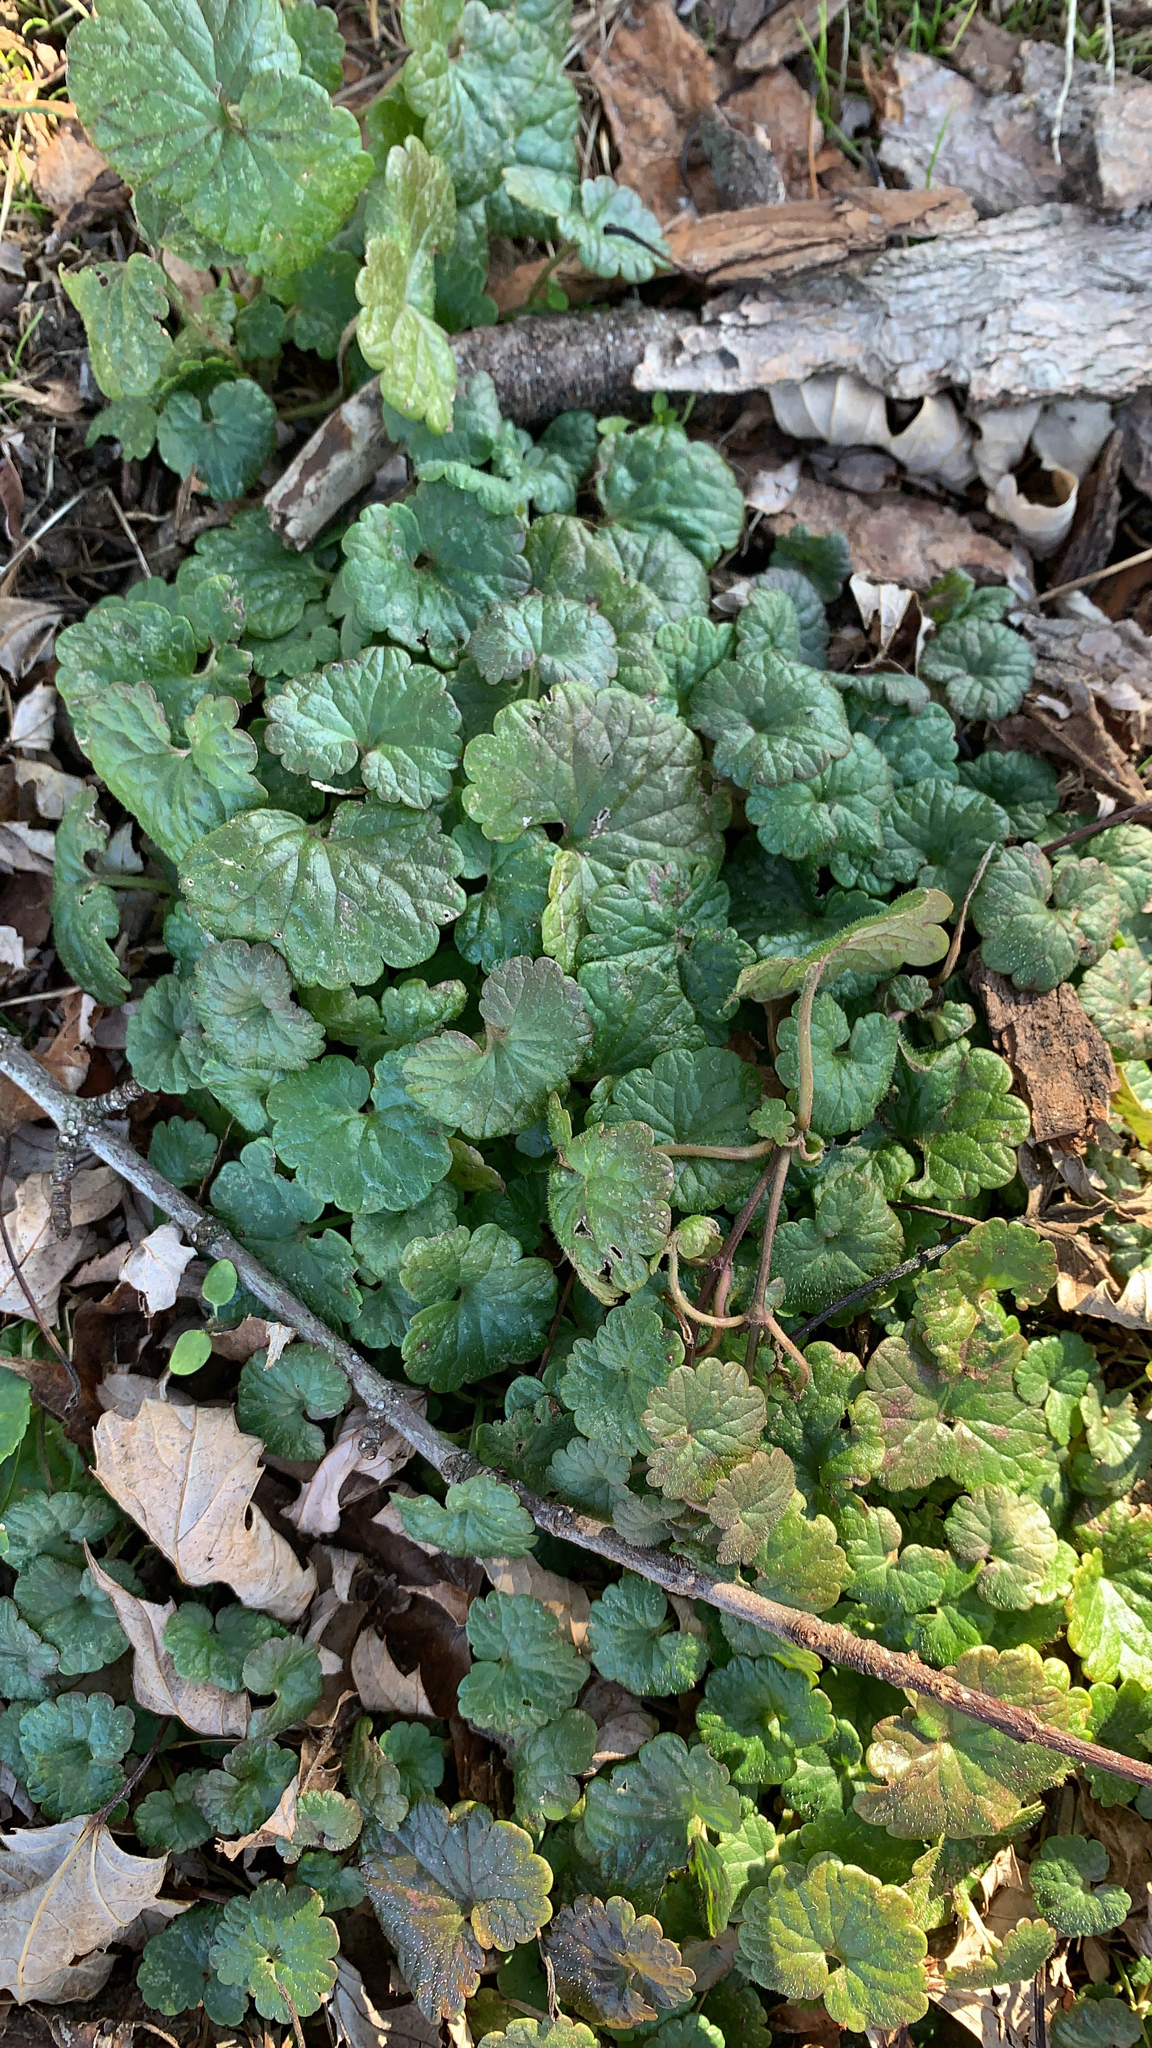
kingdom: Plantae
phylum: Tracheophyta
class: Magnoliopsida
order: Lamiales
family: Lamiaceae
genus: Glechoma
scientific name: Glechoma hederacea
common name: Ground ivy
